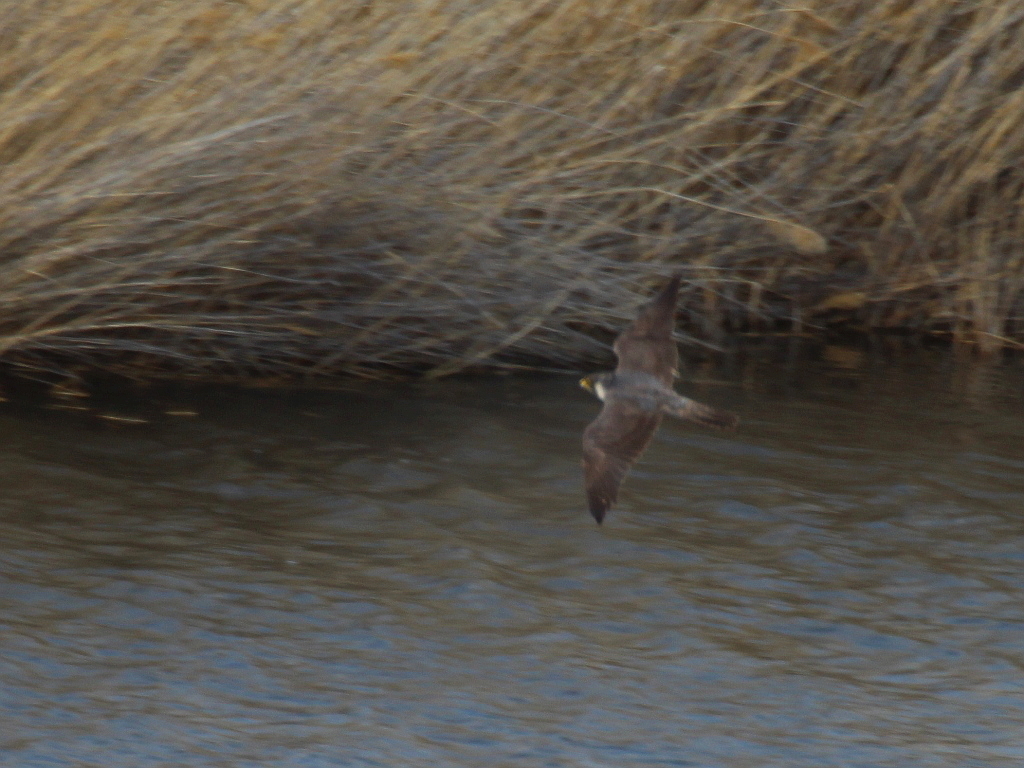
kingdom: Animalia
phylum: Chordata
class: Aves
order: Falconiformes
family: Falconidae
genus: Falco
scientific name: Falco peregrinus
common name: Peregrine falcon
